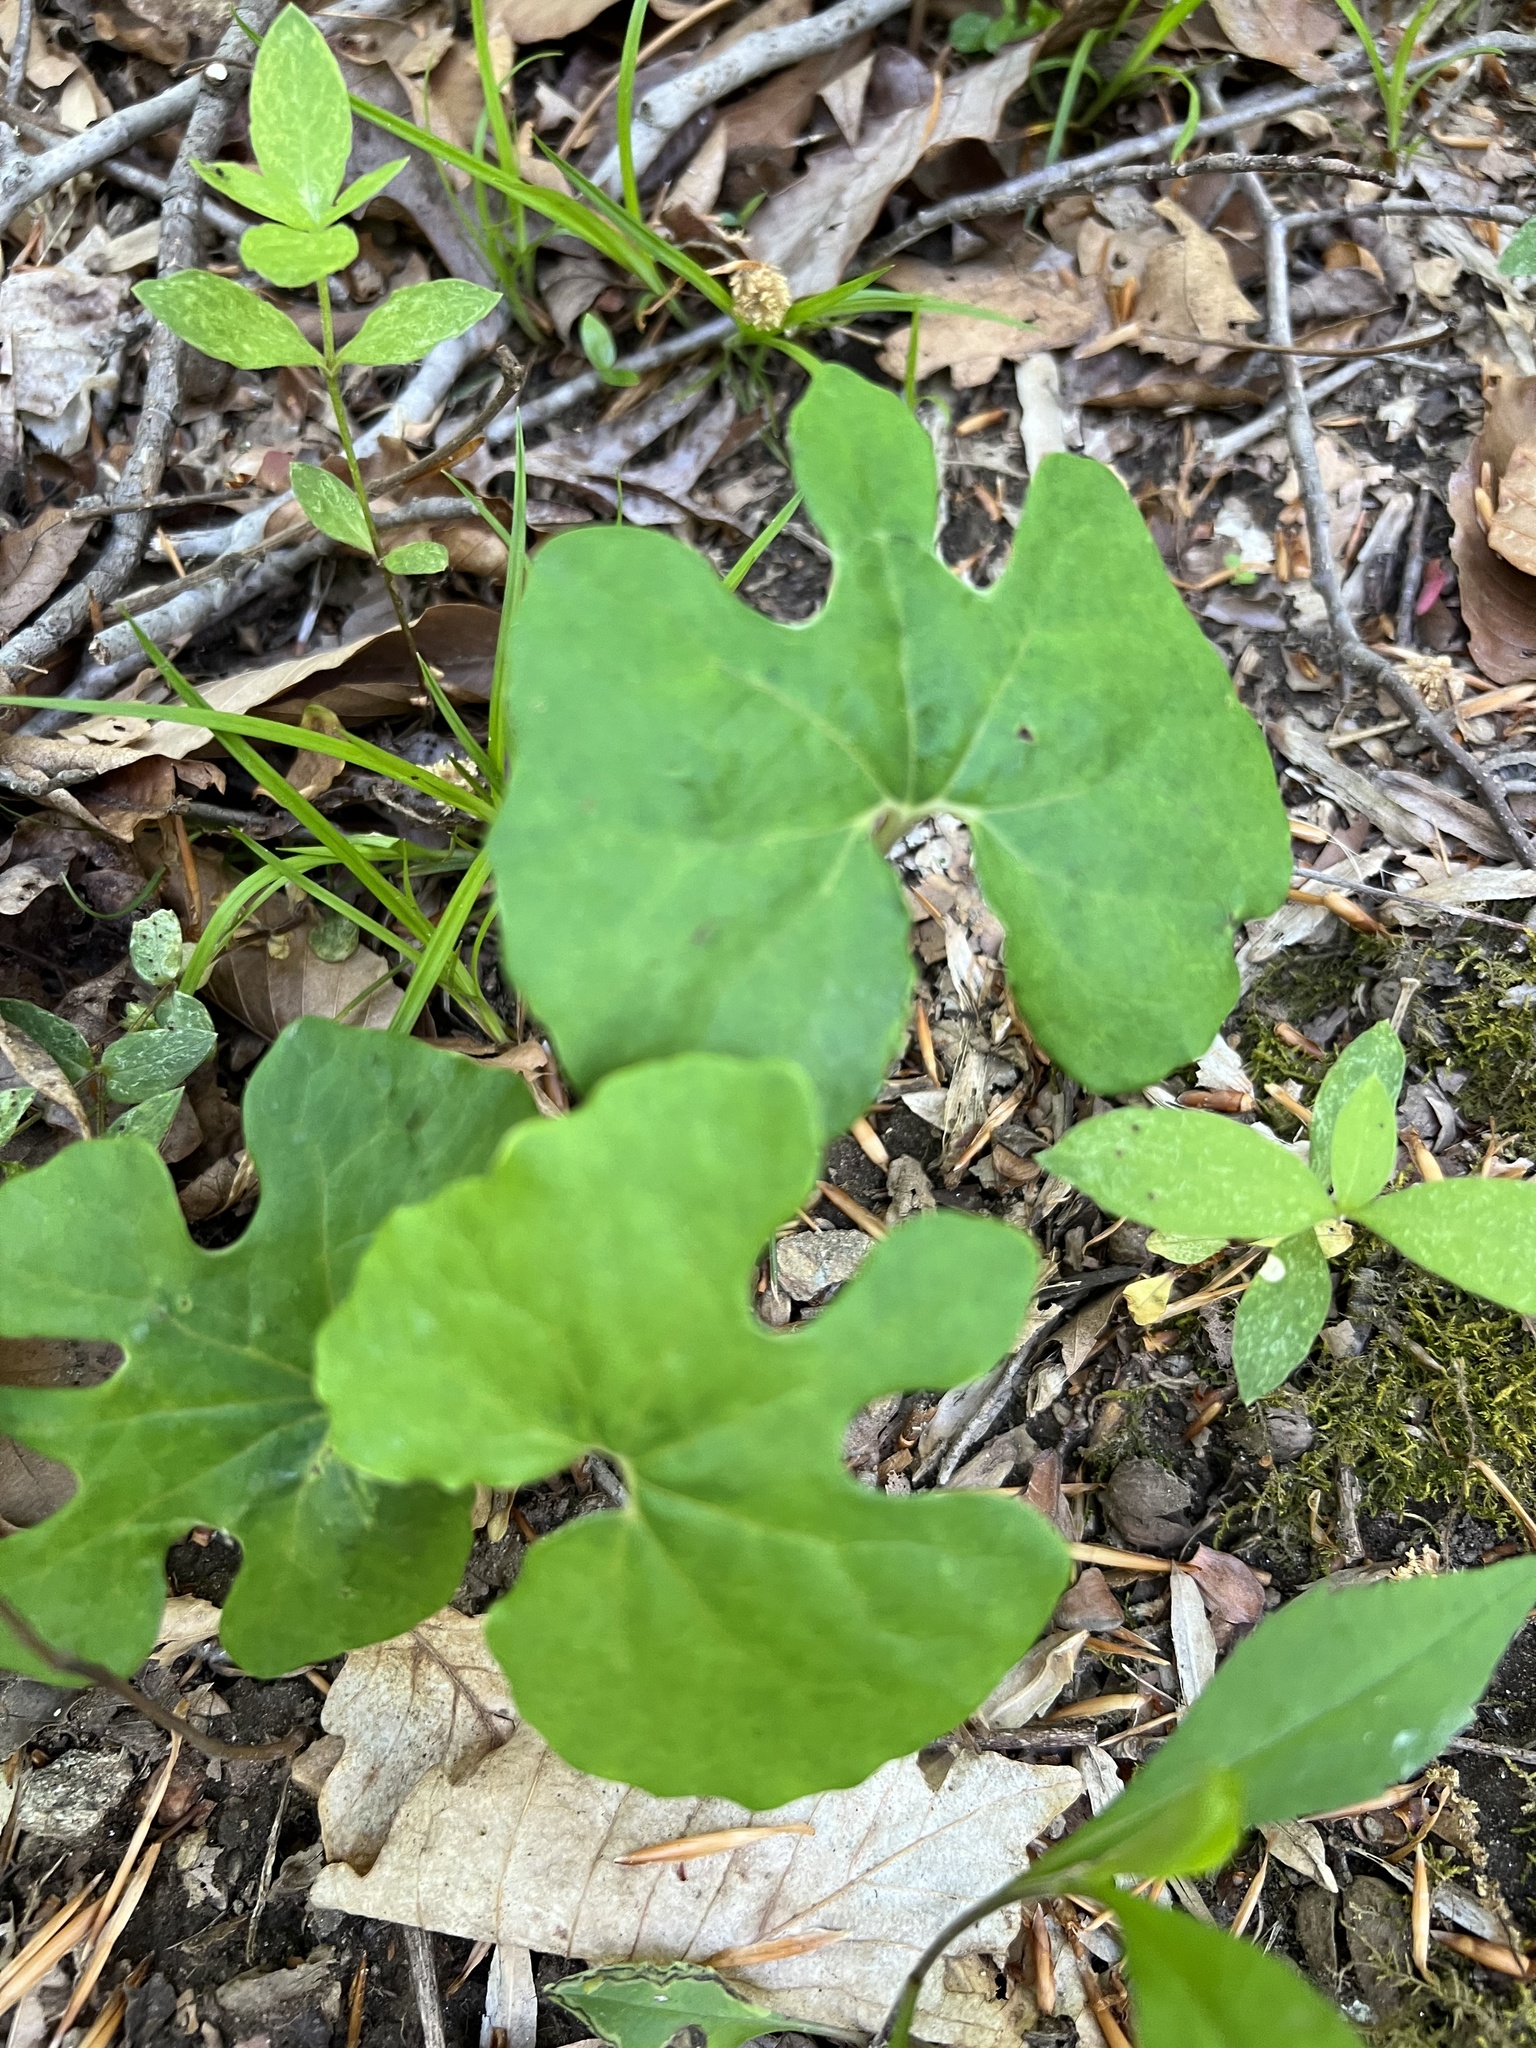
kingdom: Plantae
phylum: Tracheophyta
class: Magnoliopsida
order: Ranunculales
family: Papaveraceae
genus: Sanguinaria
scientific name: Sanguinaria canadensis
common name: Bloodroot
